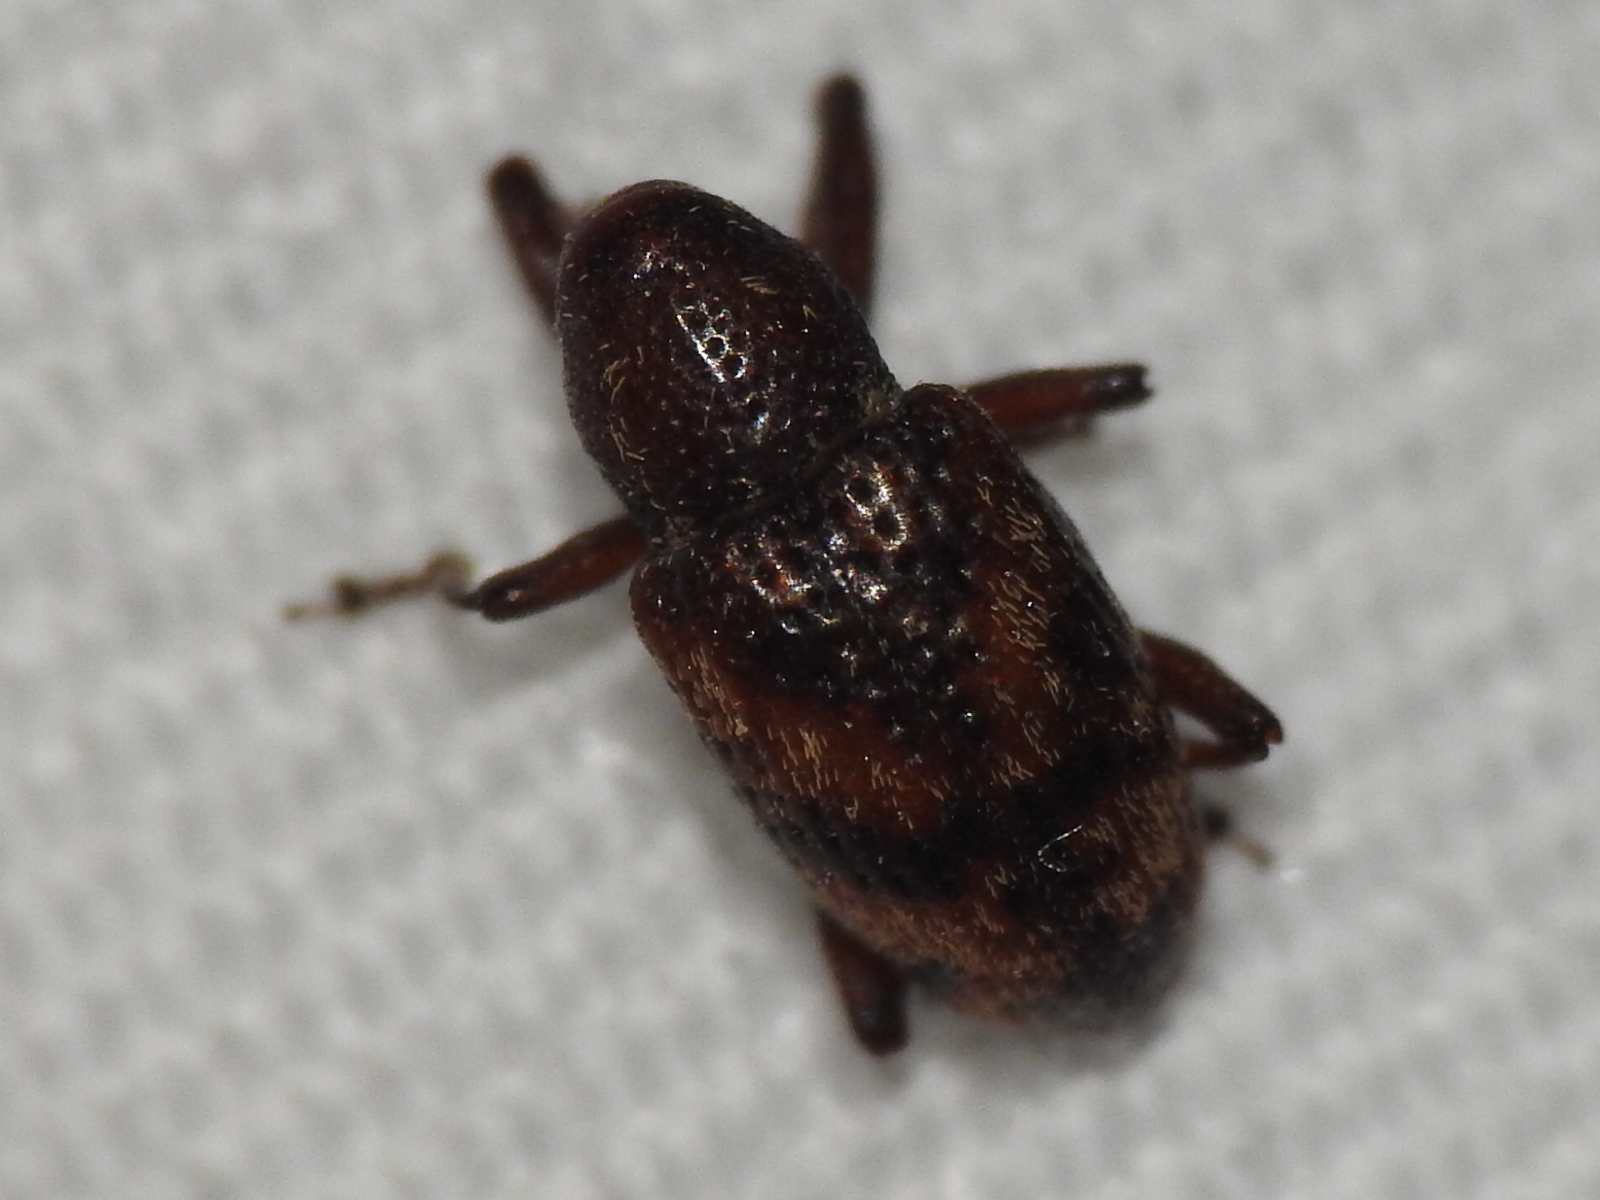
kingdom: Animalia
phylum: Arthropoda
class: Insecta
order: Coleoptera
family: Curculionidae
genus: Tyloderma
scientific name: Tyloderma sphaerocarpae
